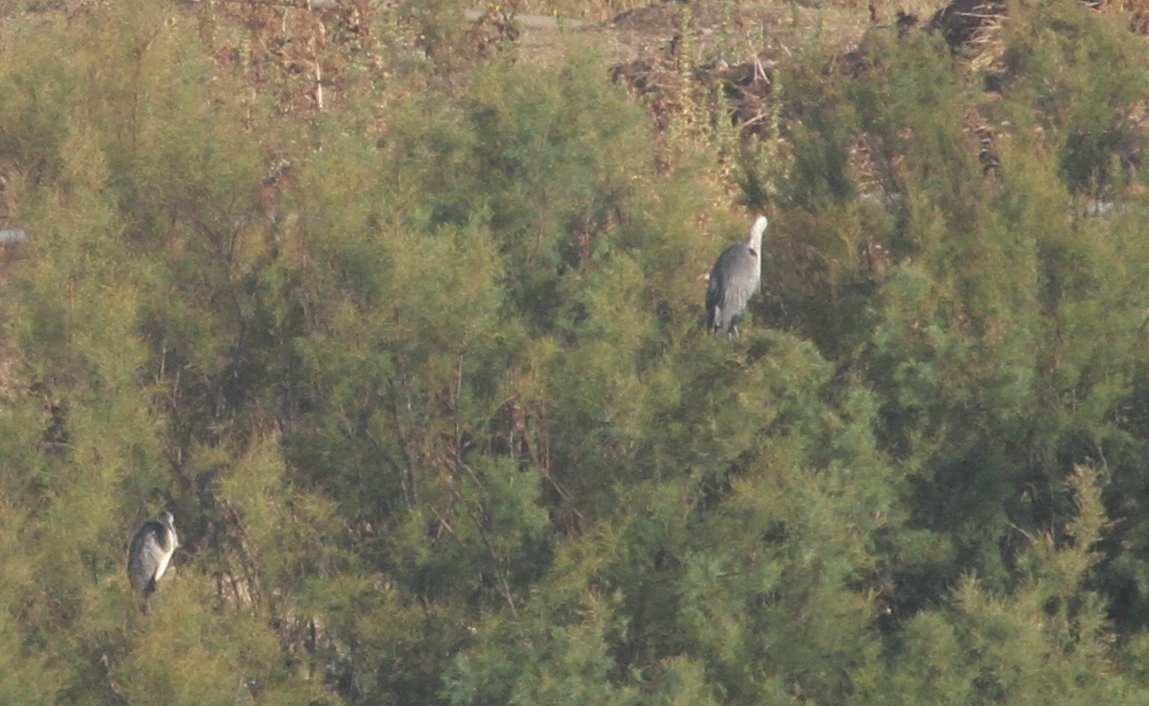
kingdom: Animalia
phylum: Chordata
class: Aves
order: Pelecaniformes
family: Ardeidae
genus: Ardea
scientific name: Ardea cinerea
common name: Grey heron
